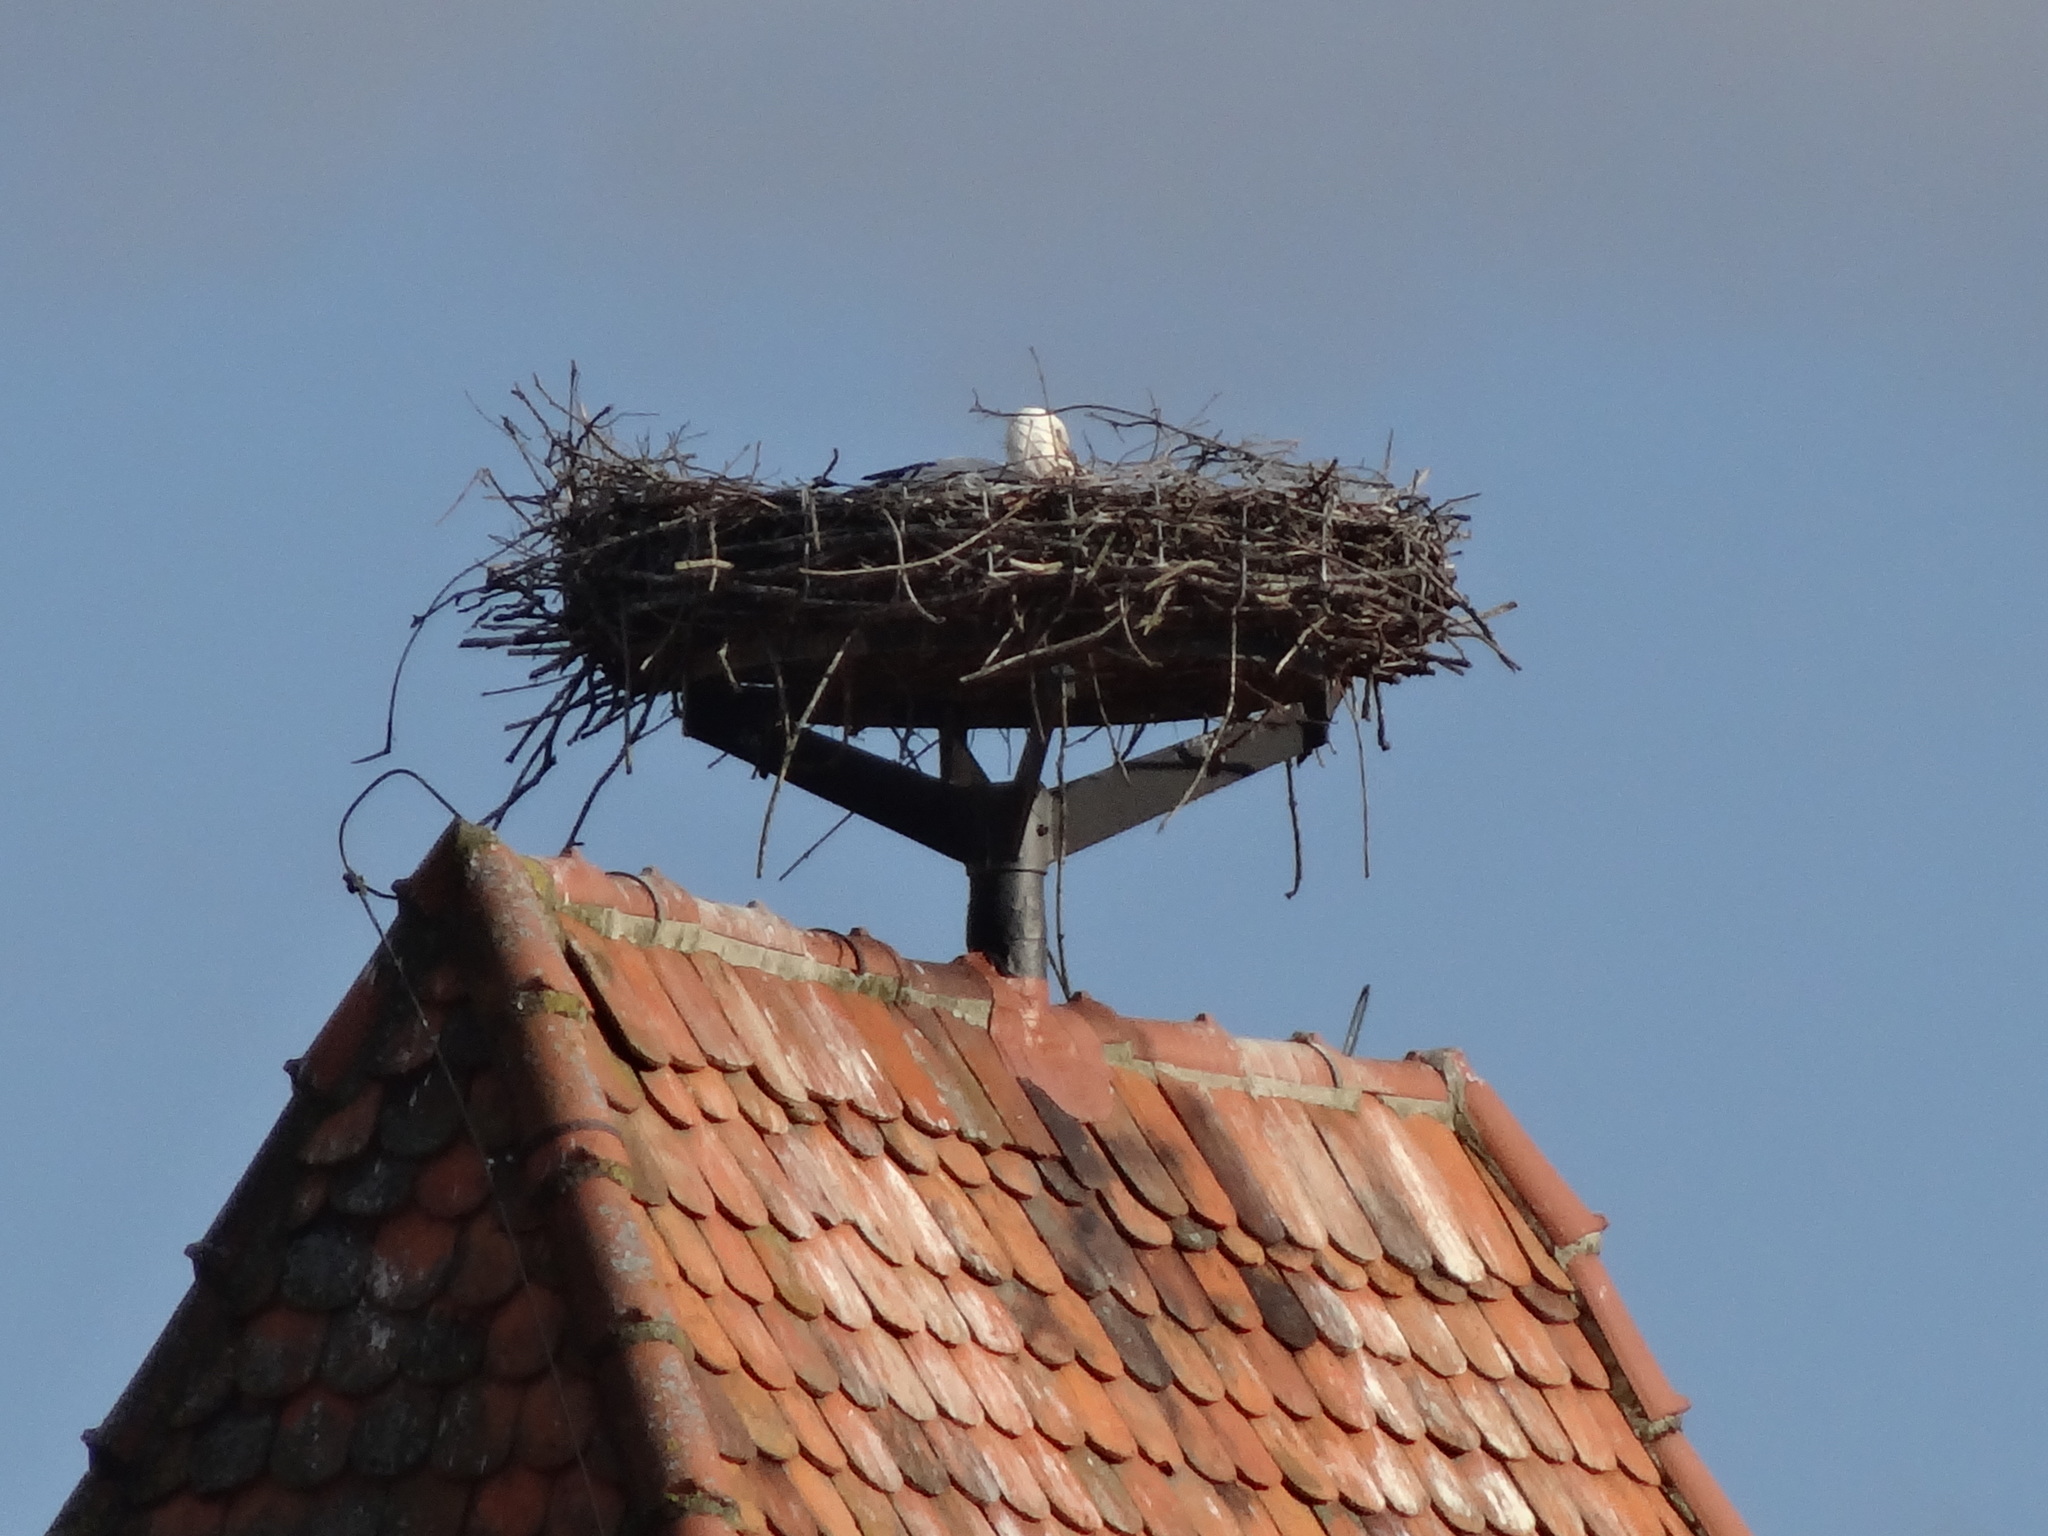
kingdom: Animalia
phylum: Chordata
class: Aves
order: Ciconiiformes
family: Ciconiidae
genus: Ciconia
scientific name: Ciconia ciconia
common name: White stork
